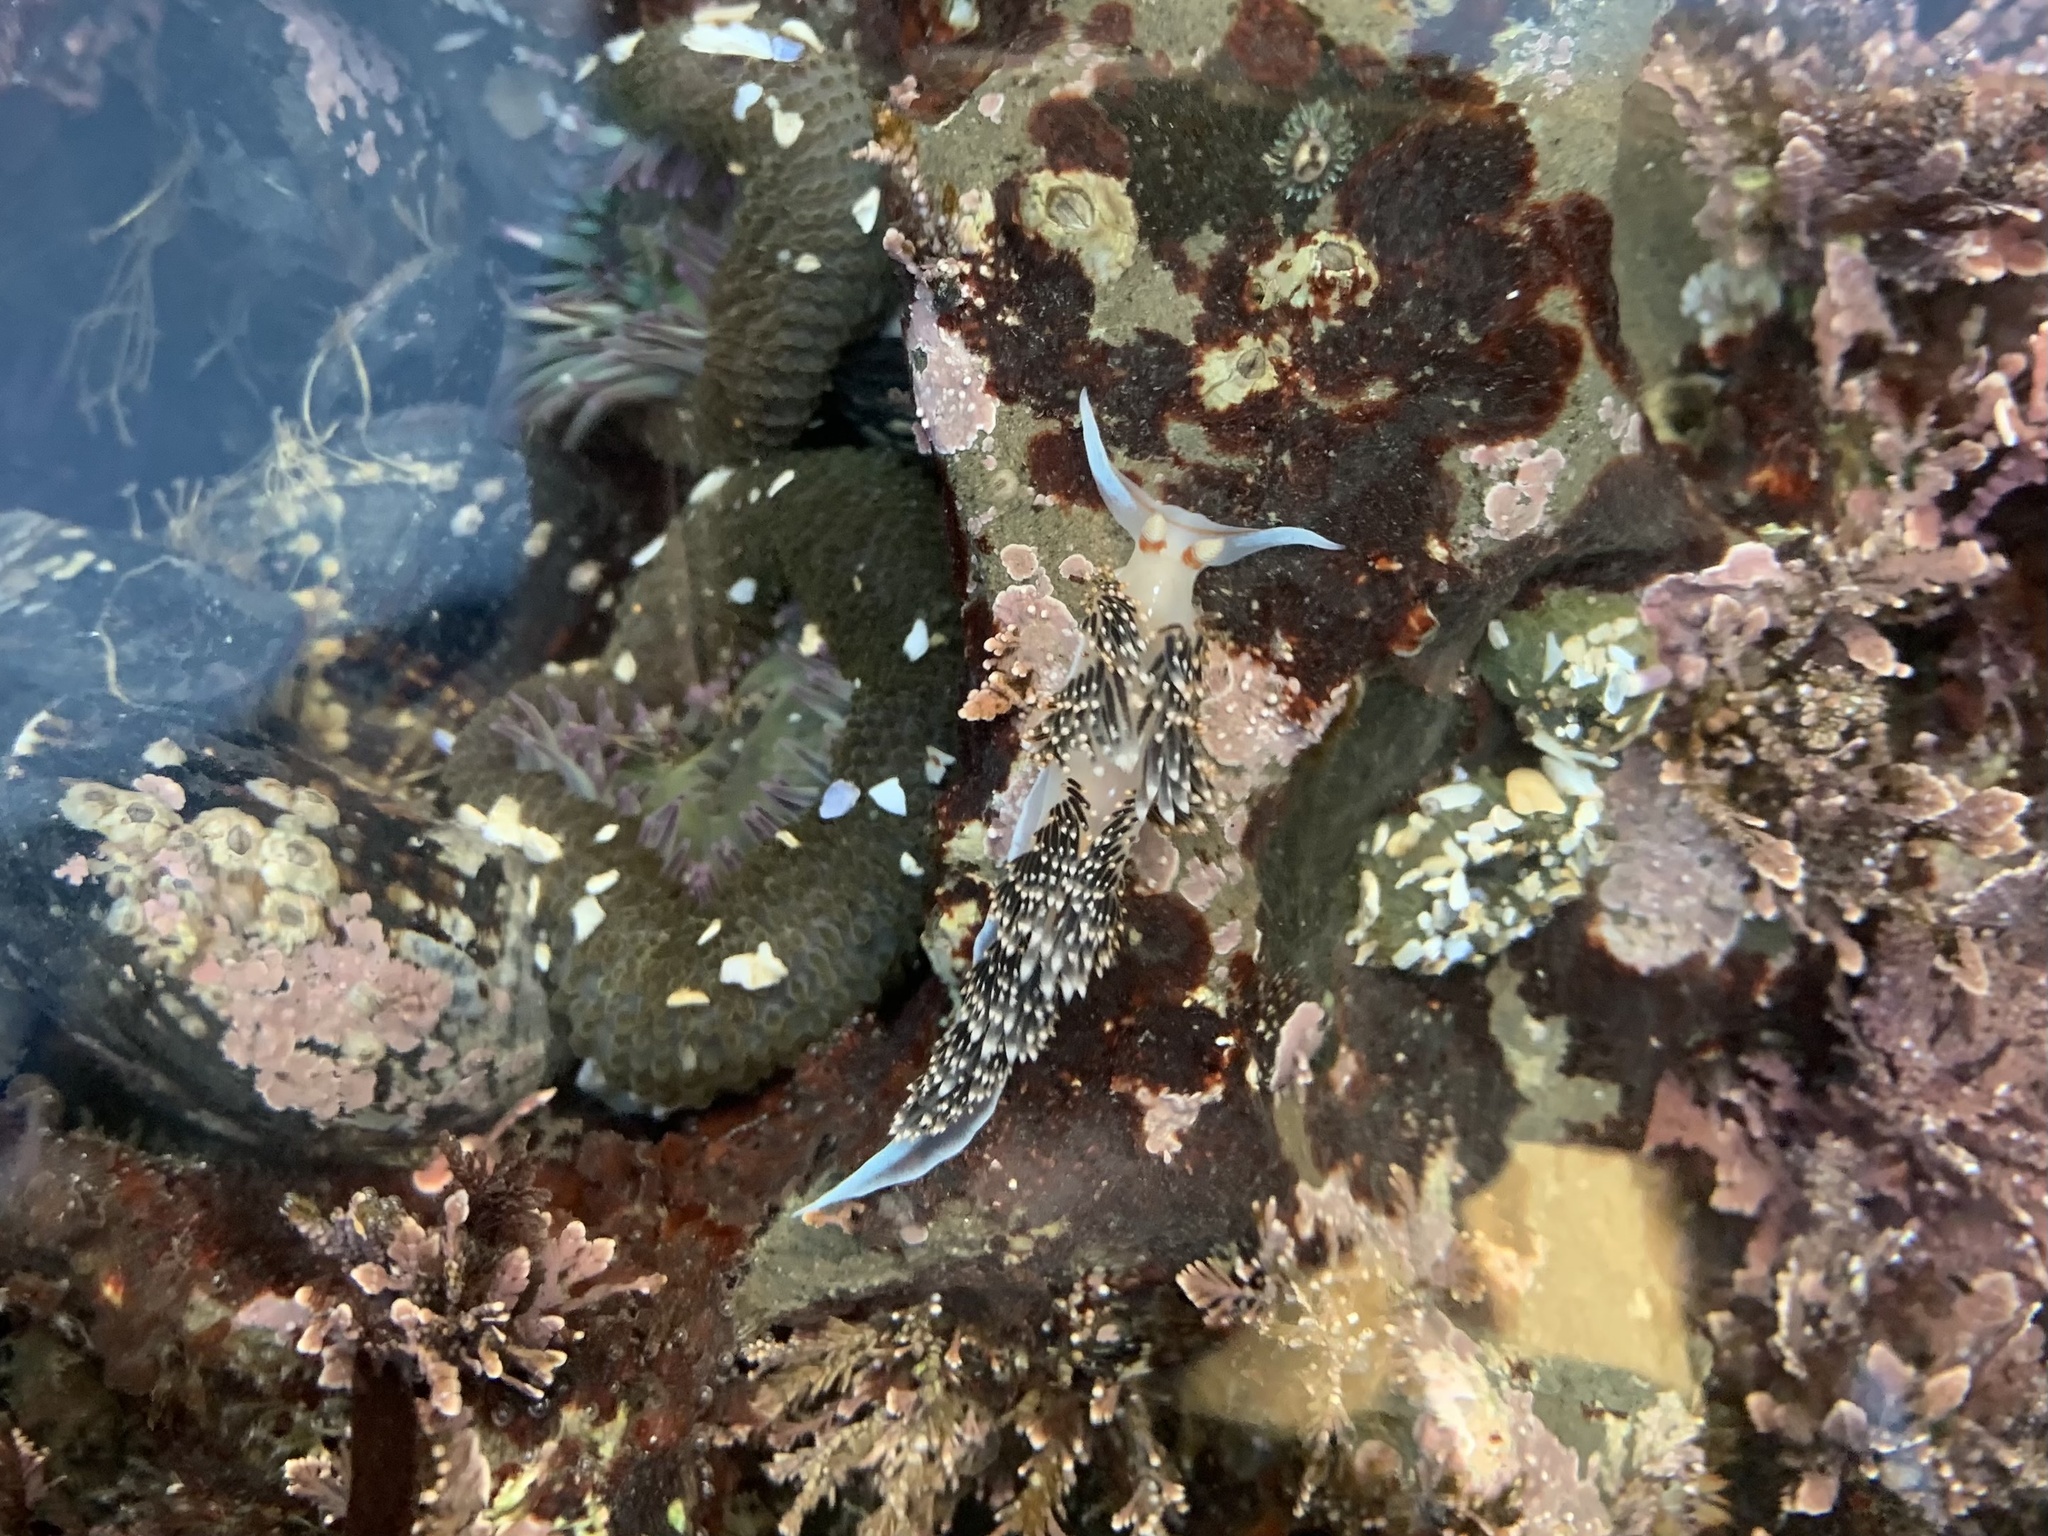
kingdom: Animalia
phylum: Mollusca
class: Gastropoda
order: Nudibranchia
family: Facelinidae
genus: Phidiana
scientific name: Phidiana hiltoni
